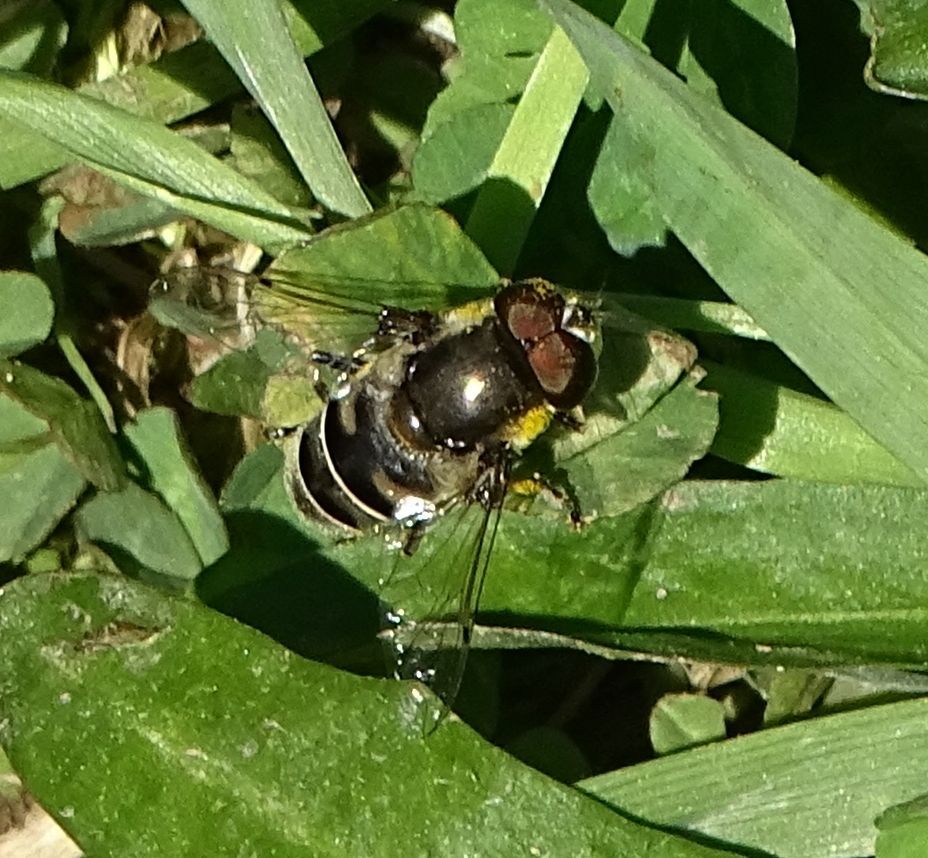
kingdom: Animalia
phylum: Arthropoda
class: Insecta
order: Diptera
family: Syrphidae
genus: Eristalis
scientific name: Eristalis dimidiata
